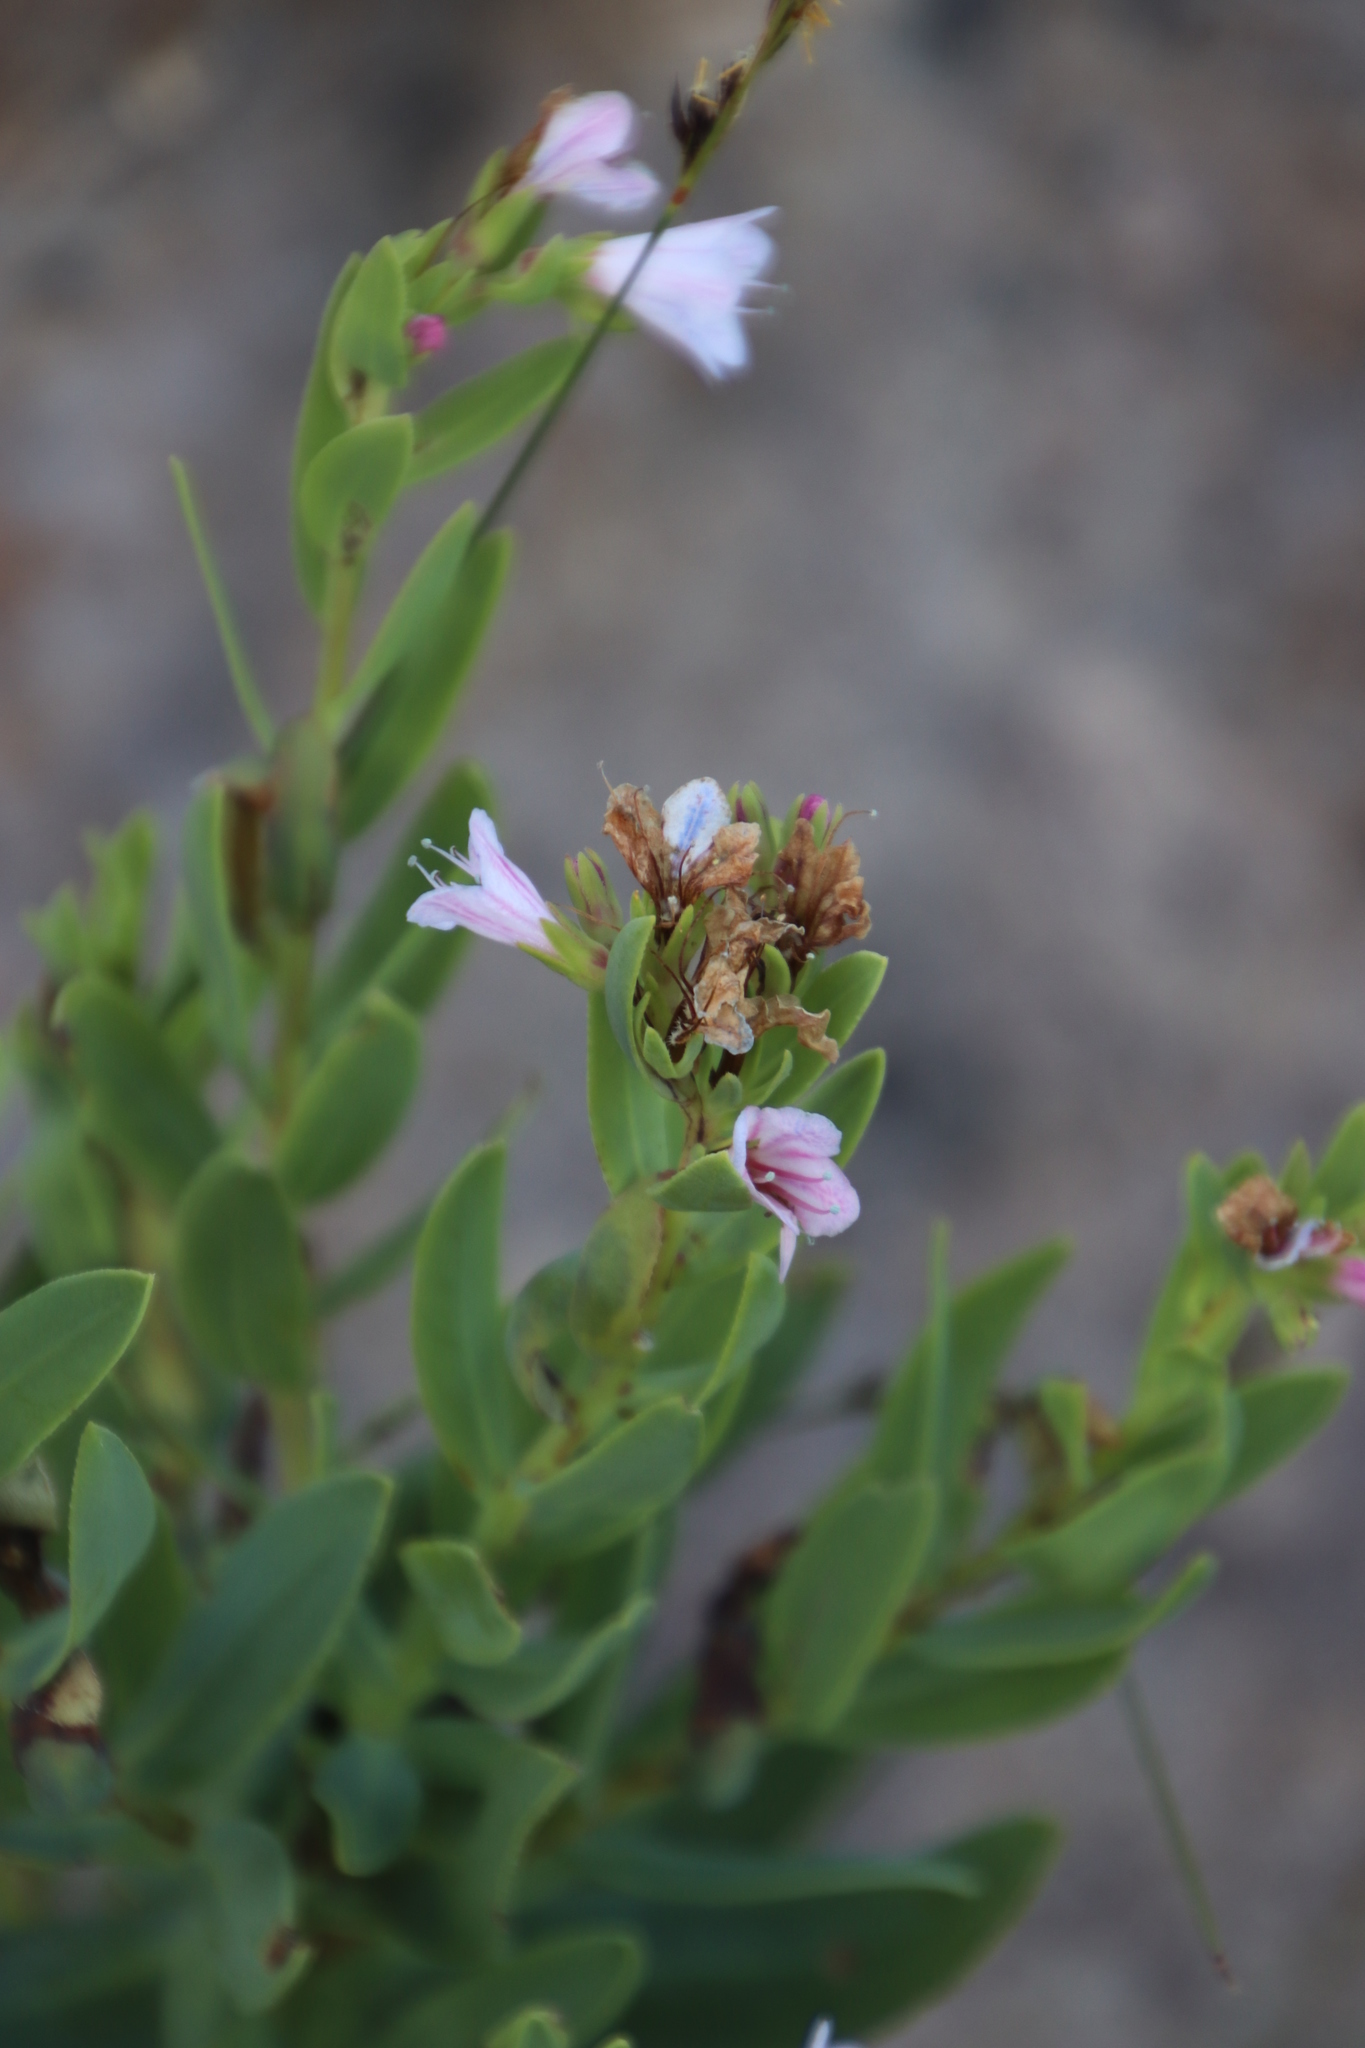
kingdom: Plantae
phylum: Tracheophyta
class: Magnoliopsida
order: Boraginales
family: Boraginaceae
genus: Lobostemon
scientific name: Lobostemon glaucophyllus
